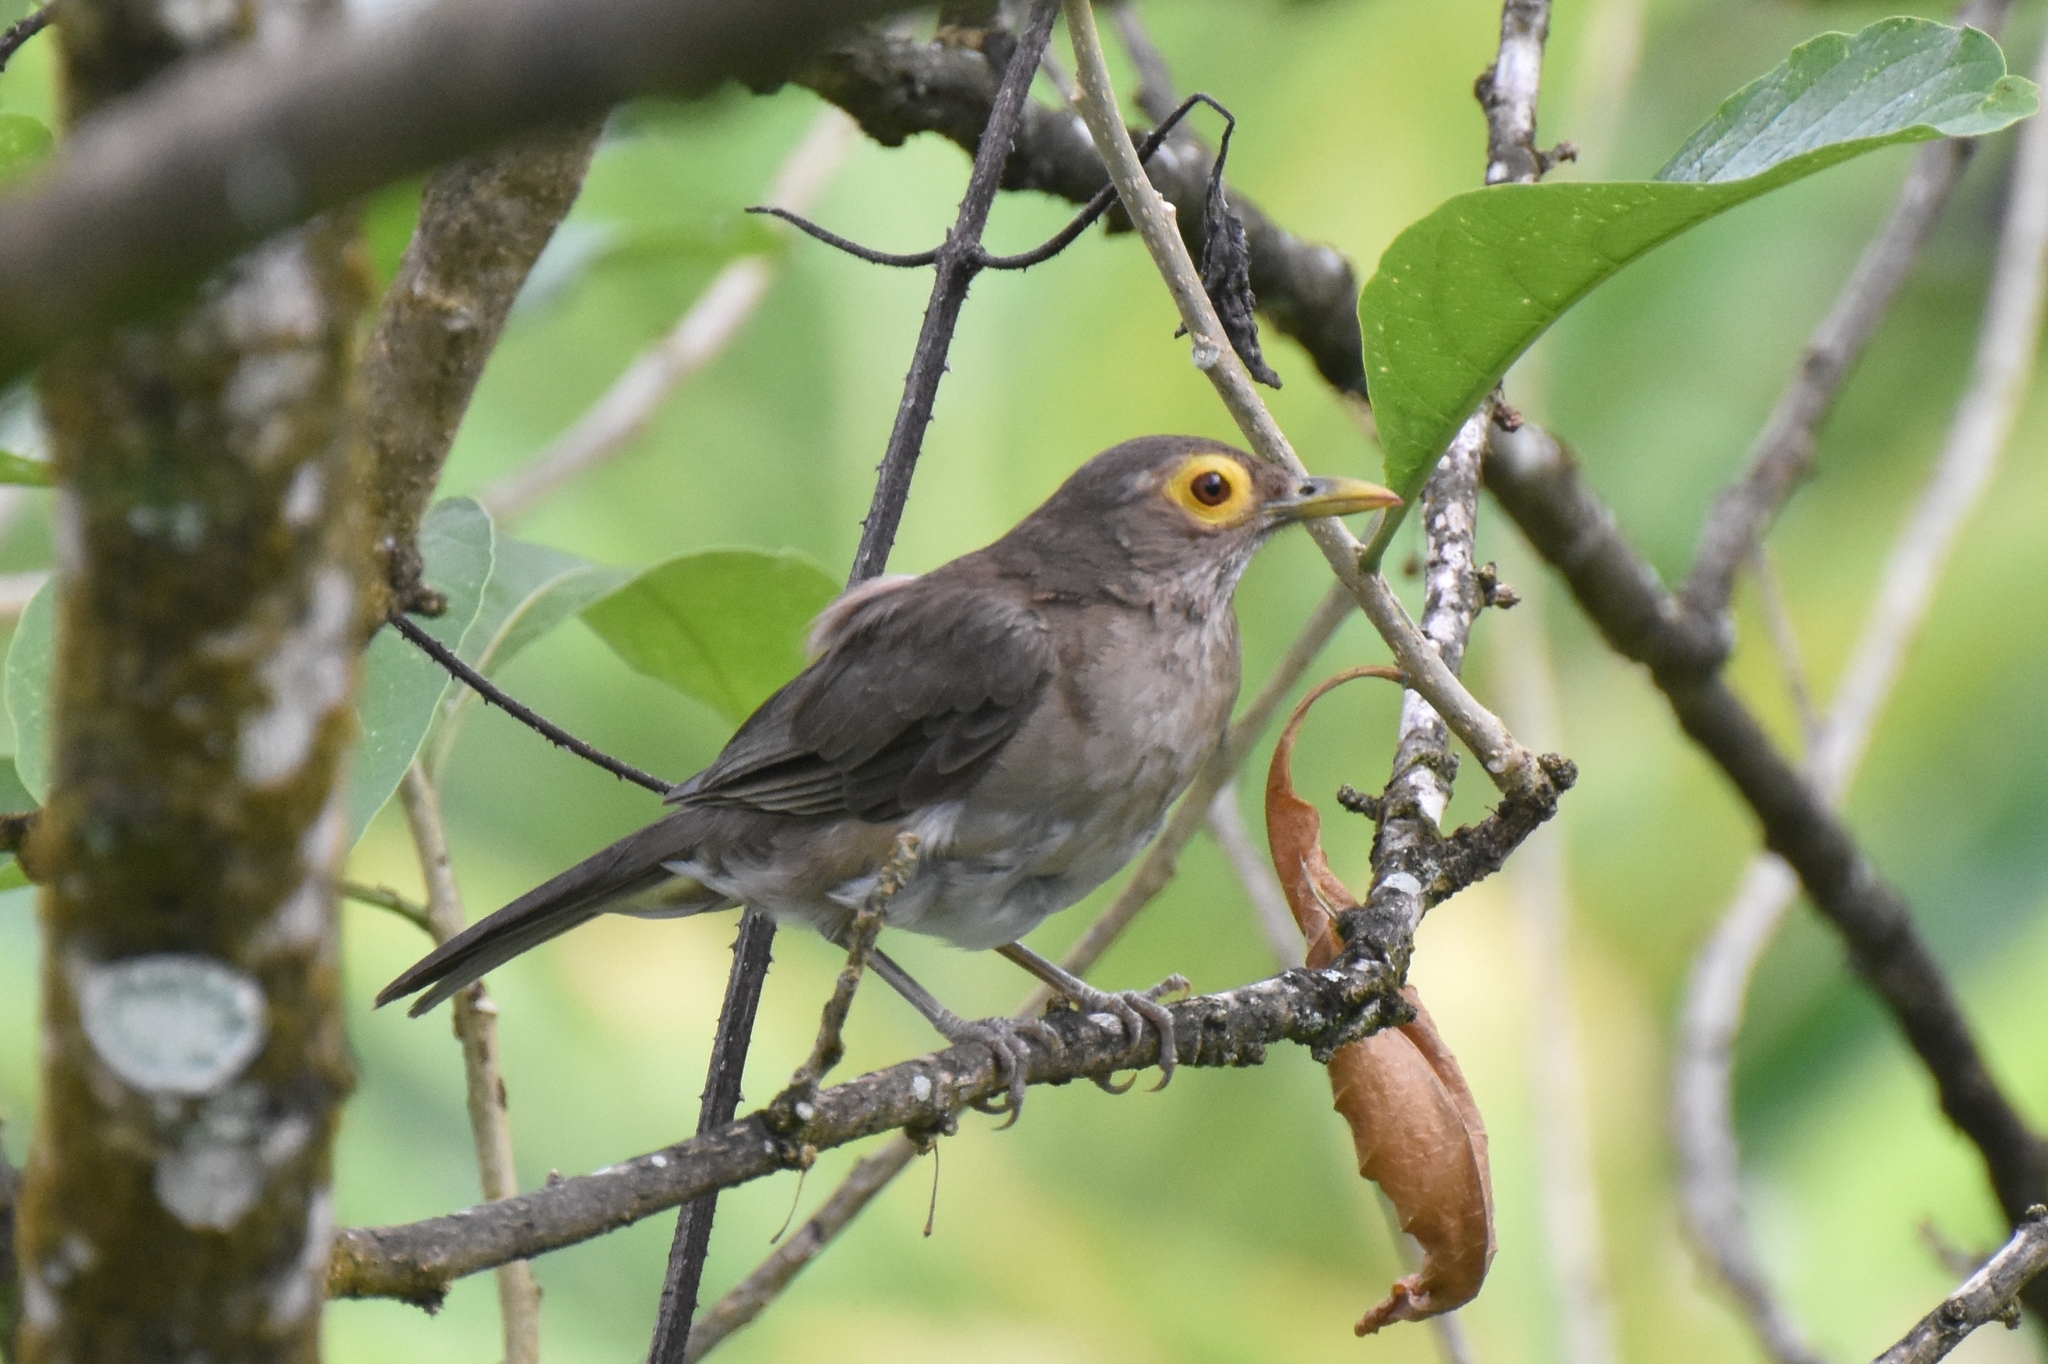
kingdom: Animalia
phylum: Chordata
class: Aves
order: Passeriformes
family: Turdidae
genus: Turdus
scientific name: Turdus nudigenis
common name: Spectacled thrush
